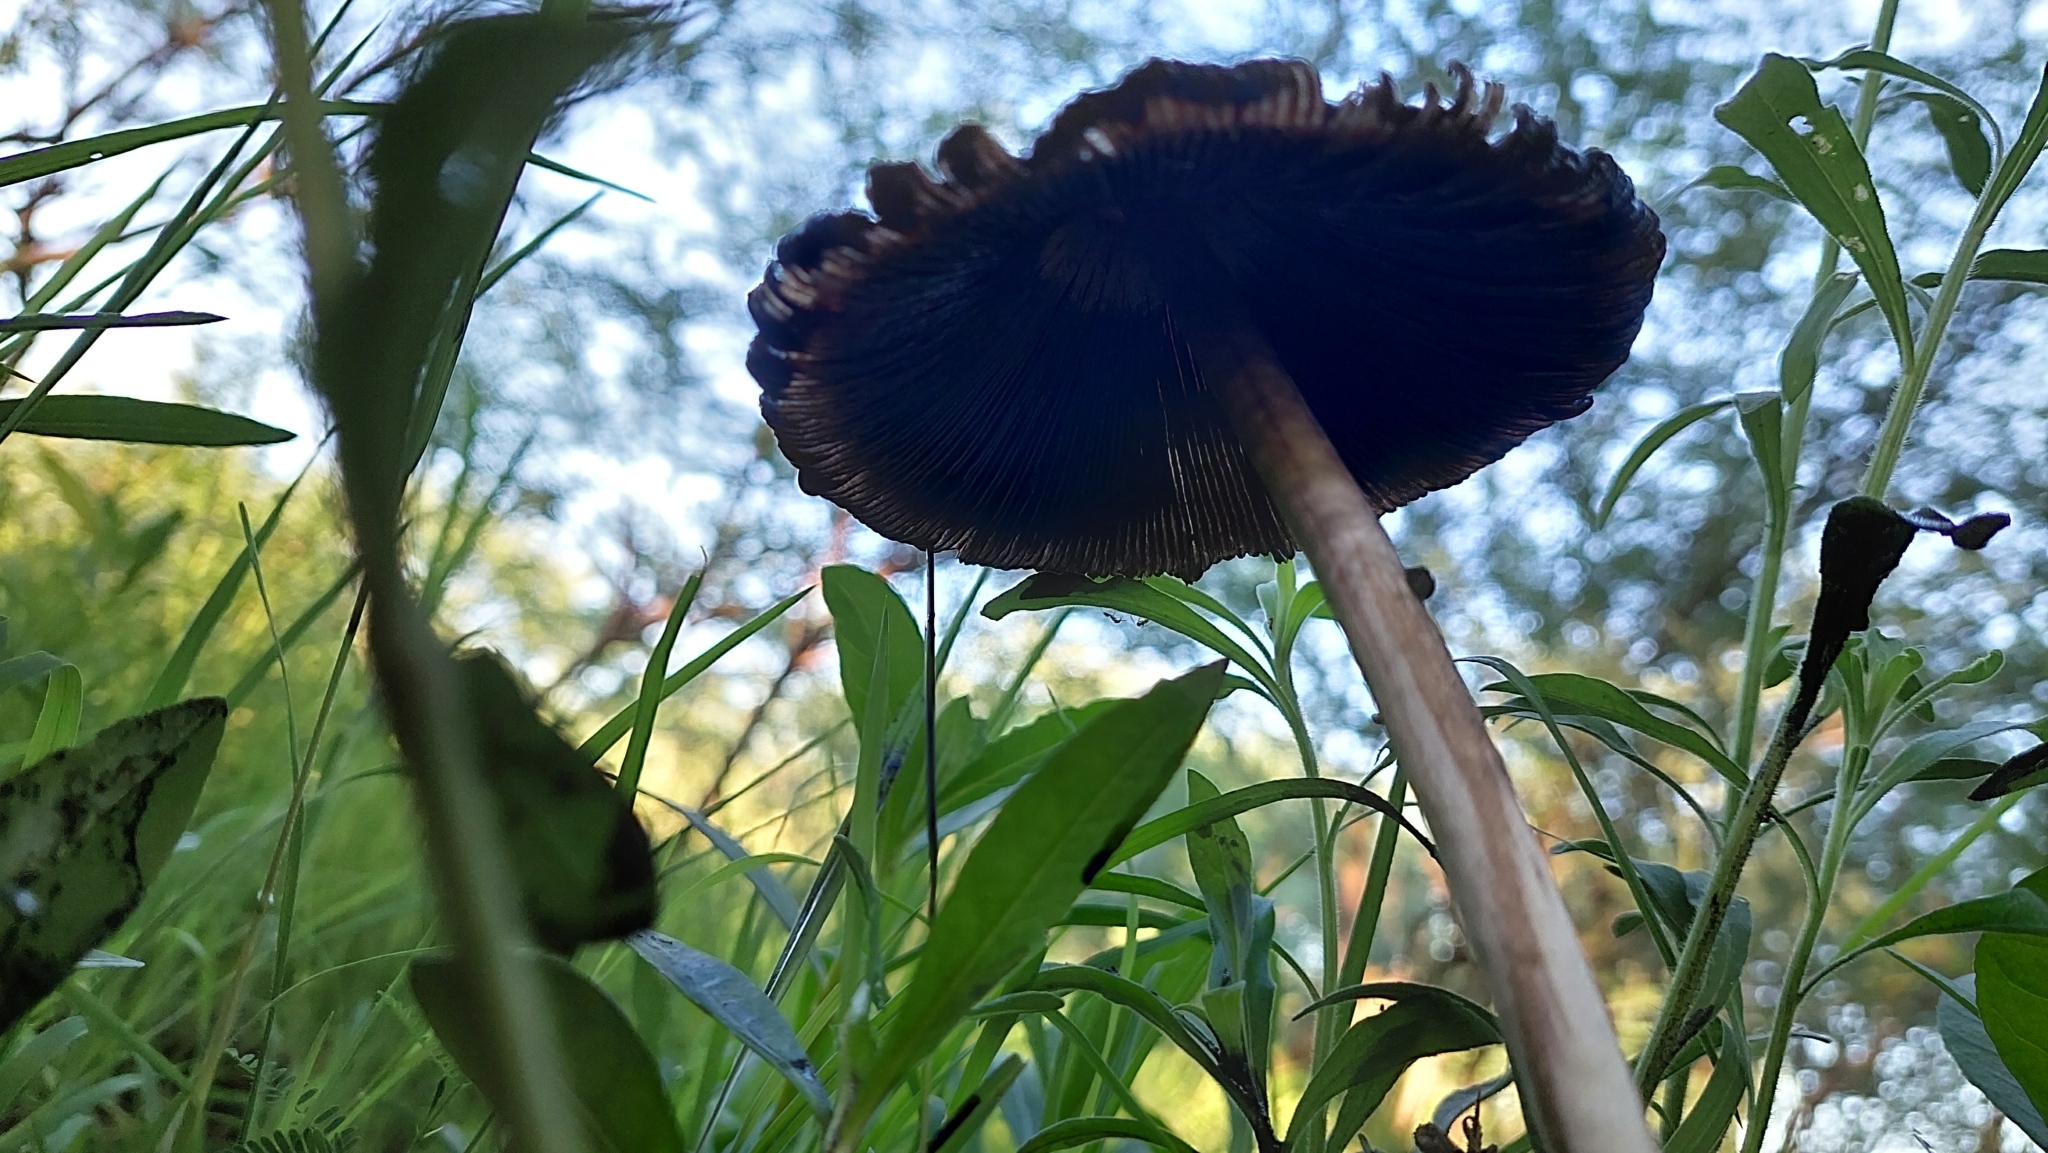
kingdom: Fungi
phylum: Basidiomycota
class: Agaricomycetes
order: Agaricales
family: Agaricaceae
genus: Coprinus
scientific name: Coprinus comatus
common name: Lawyer's wig
